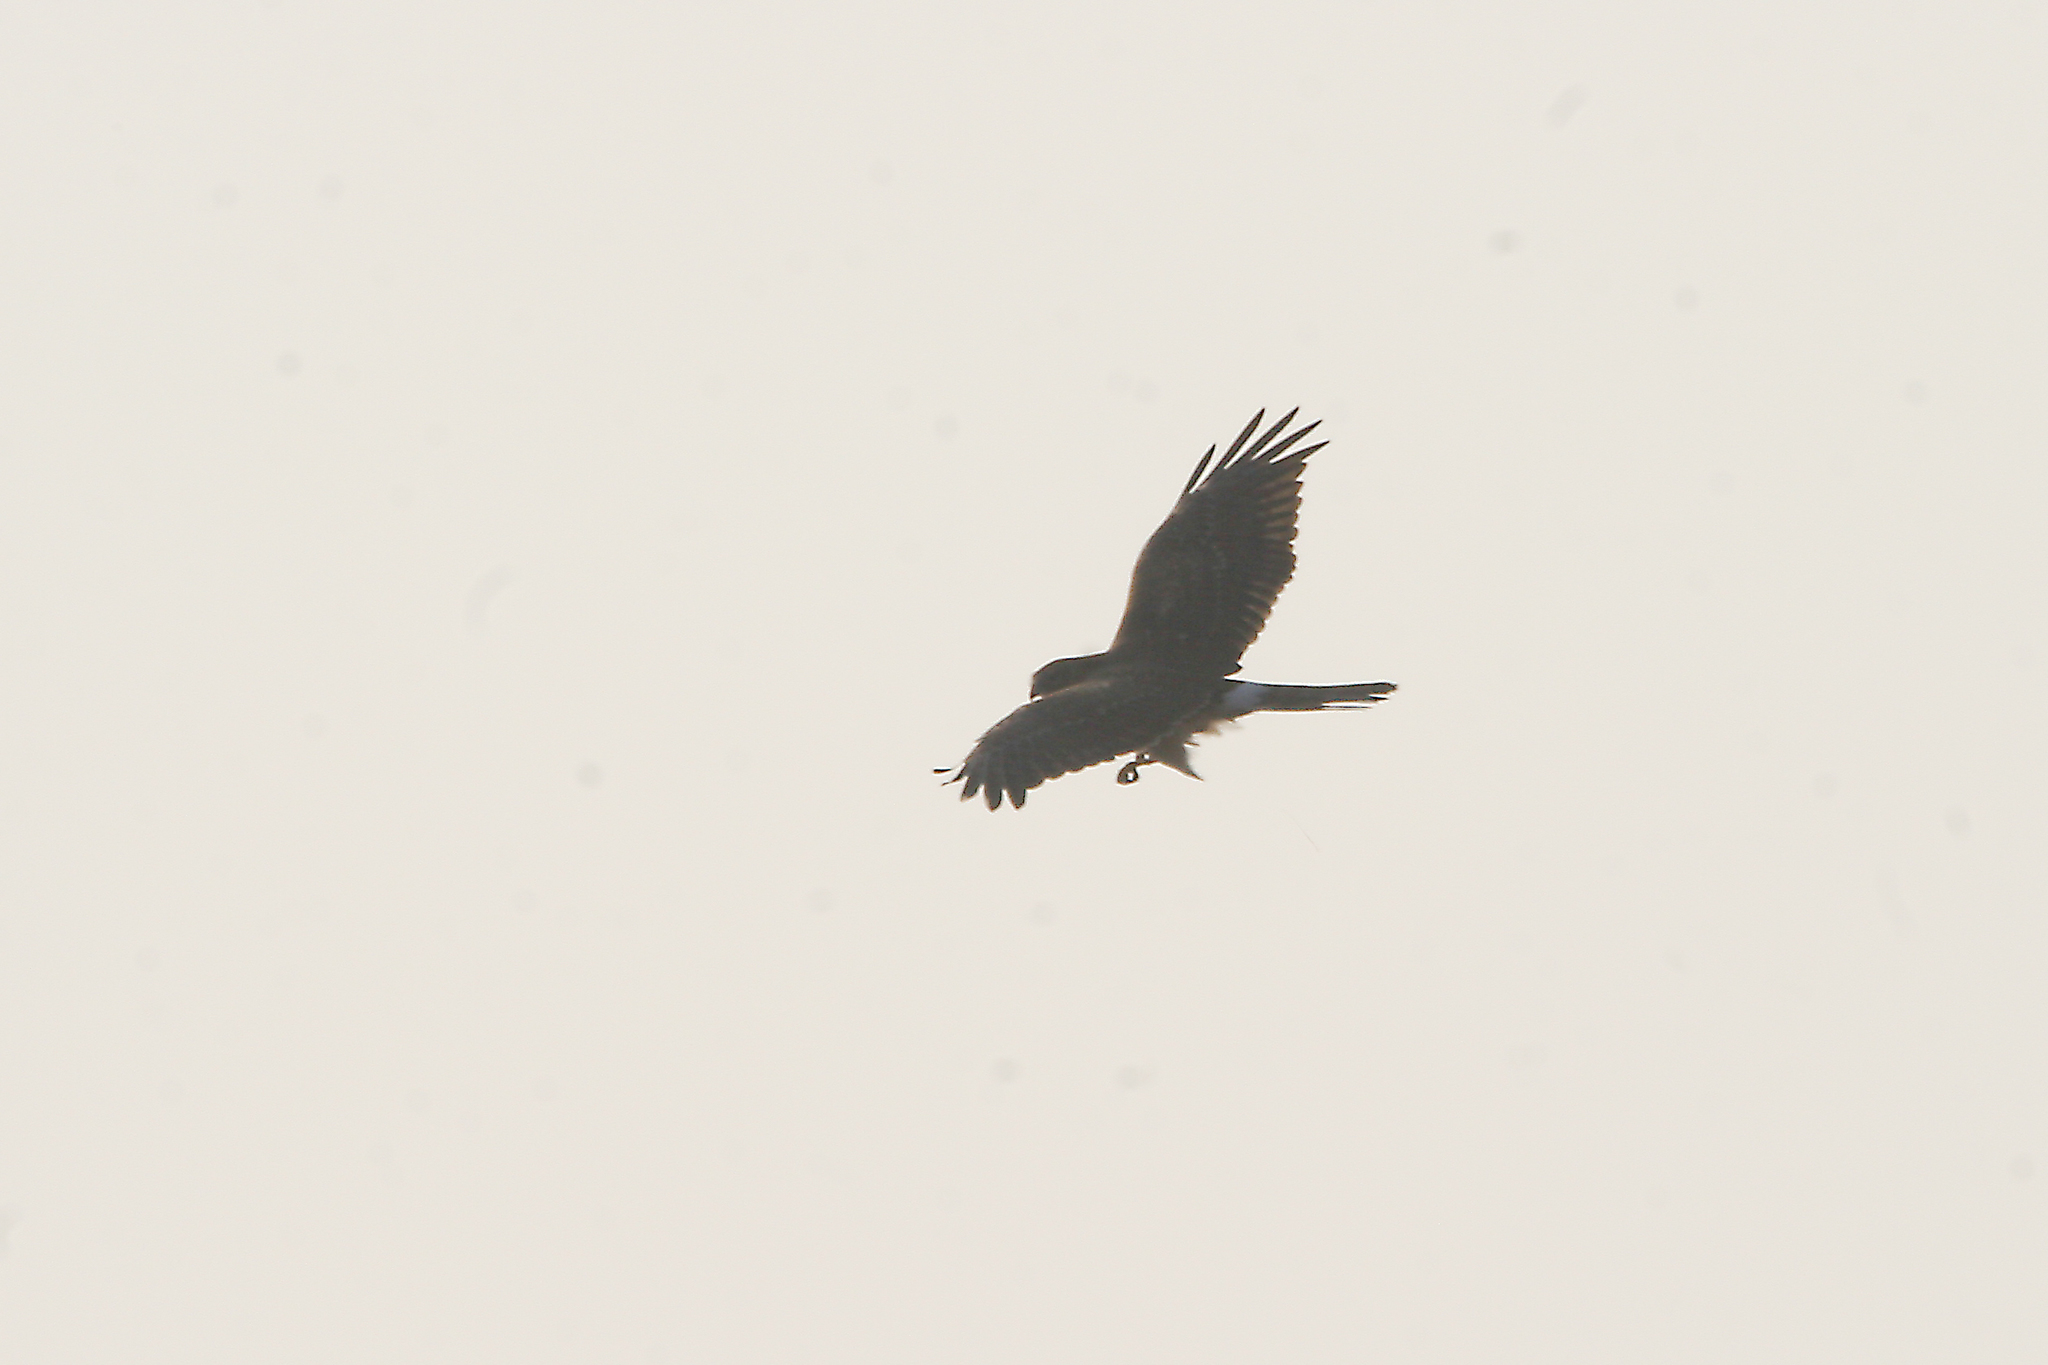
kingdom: Animalia
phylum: Chordata
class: Aves
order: Accipitriformes
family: Accipitridae
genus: Circus
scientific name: Circus cyaneus
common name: Hen harrier
